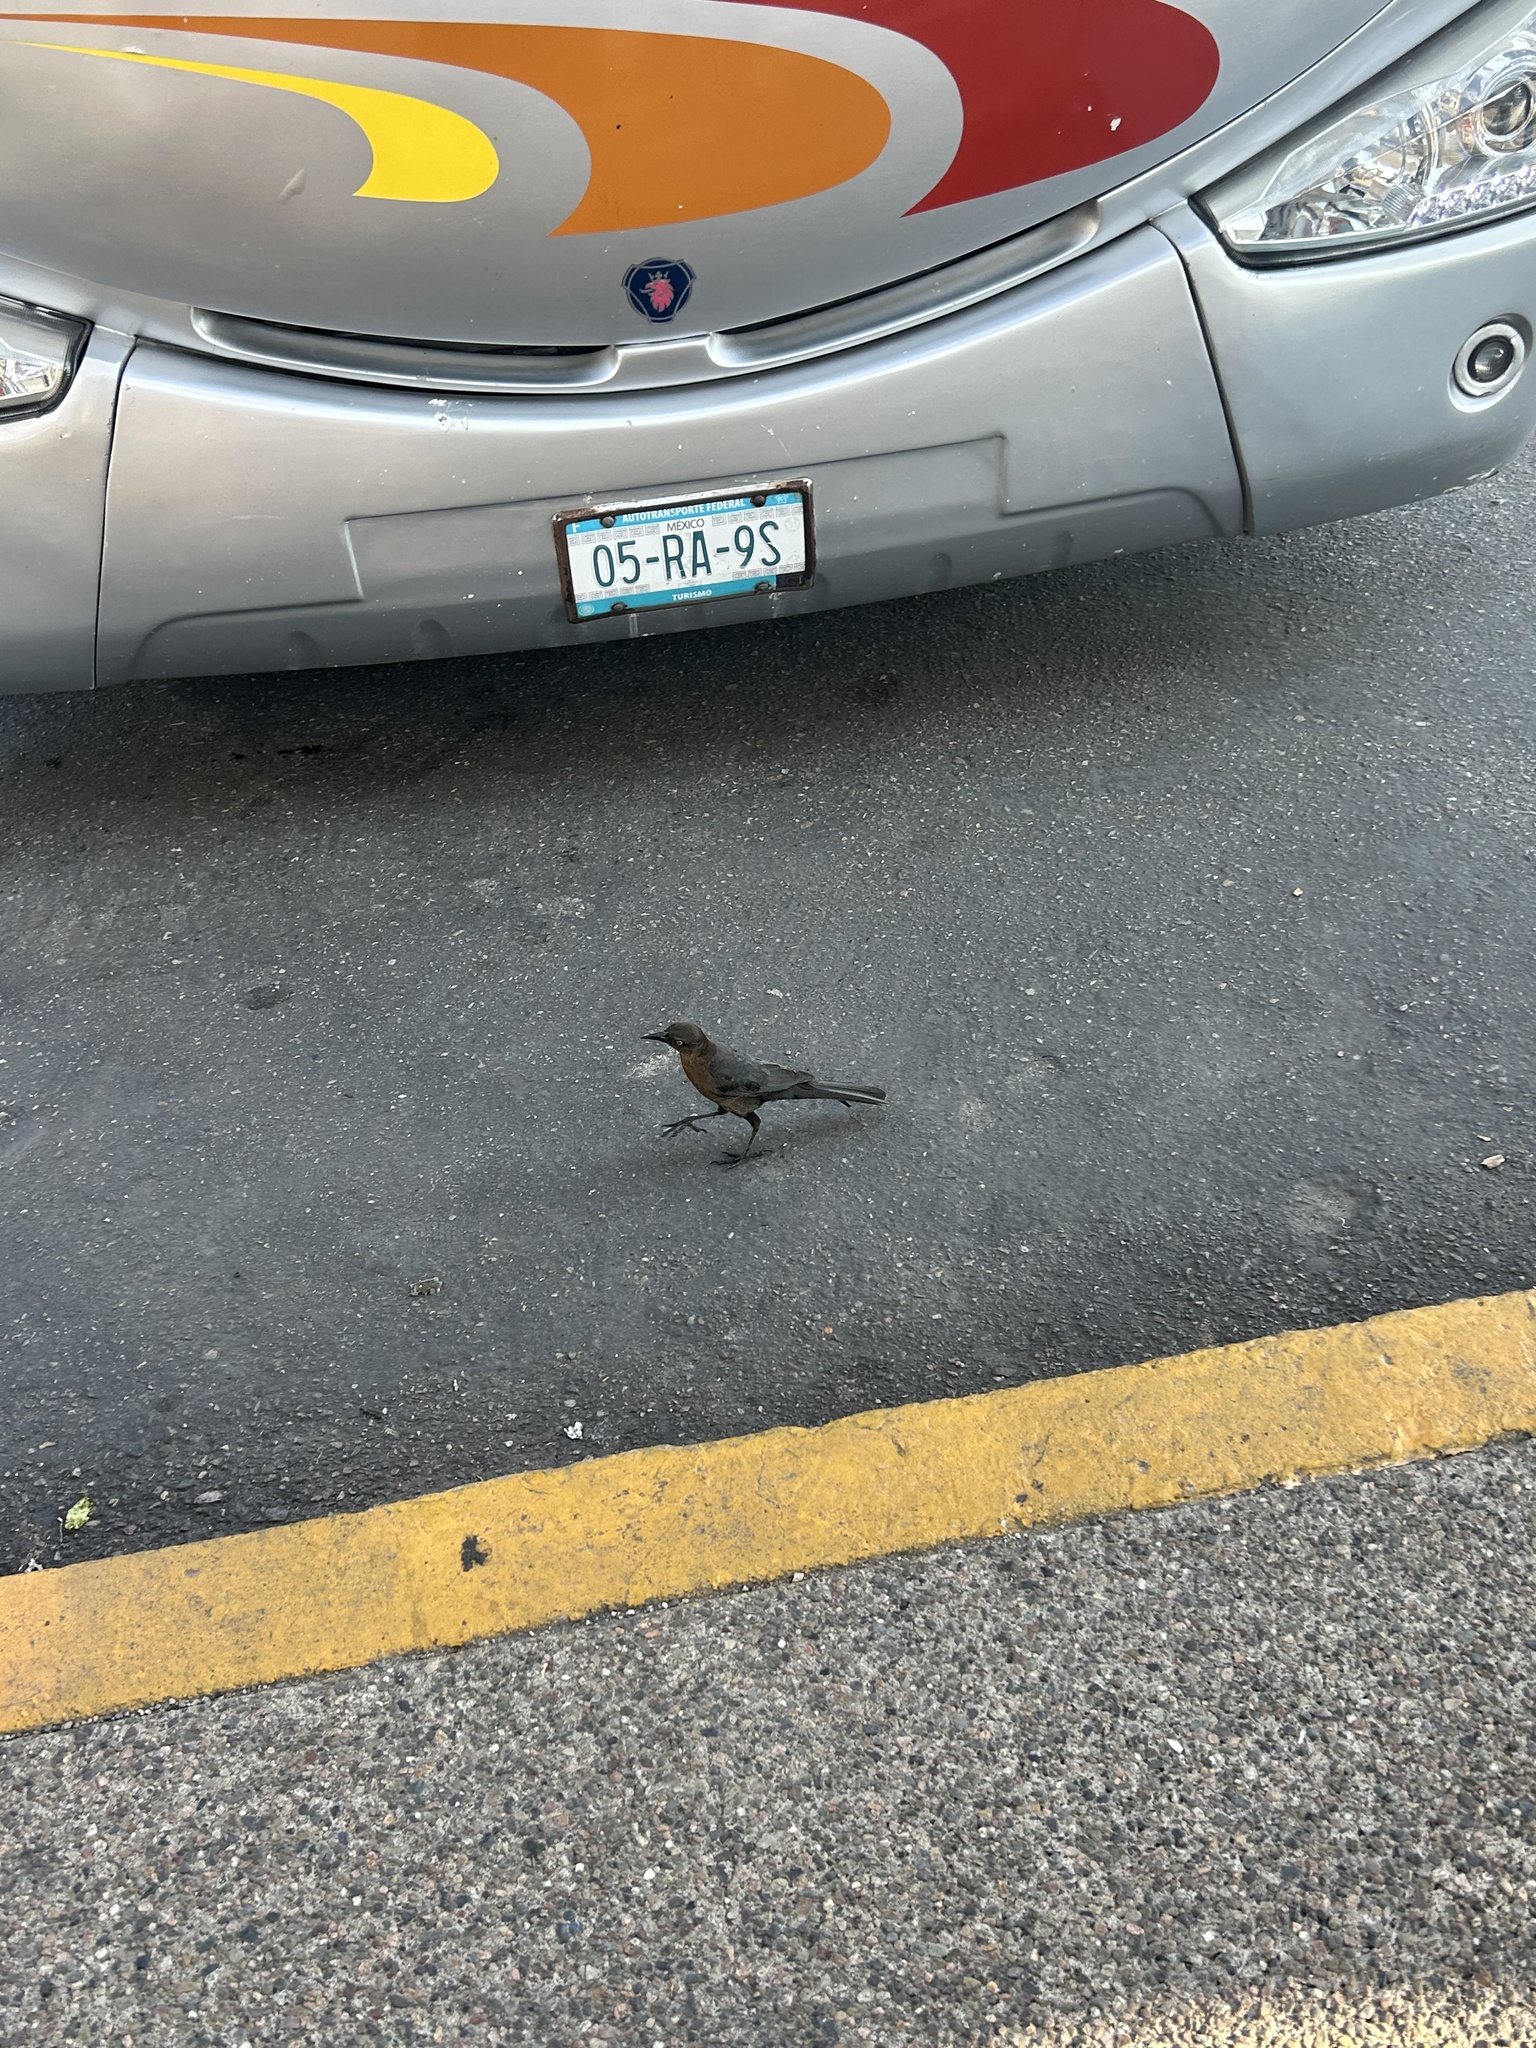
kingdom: Animalia
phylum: Chordata
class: Aves
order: Passeriformes
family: Icteridae
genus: Quiscalus
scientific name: Quiscalus mexicanus
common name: Great-tailed grackle
